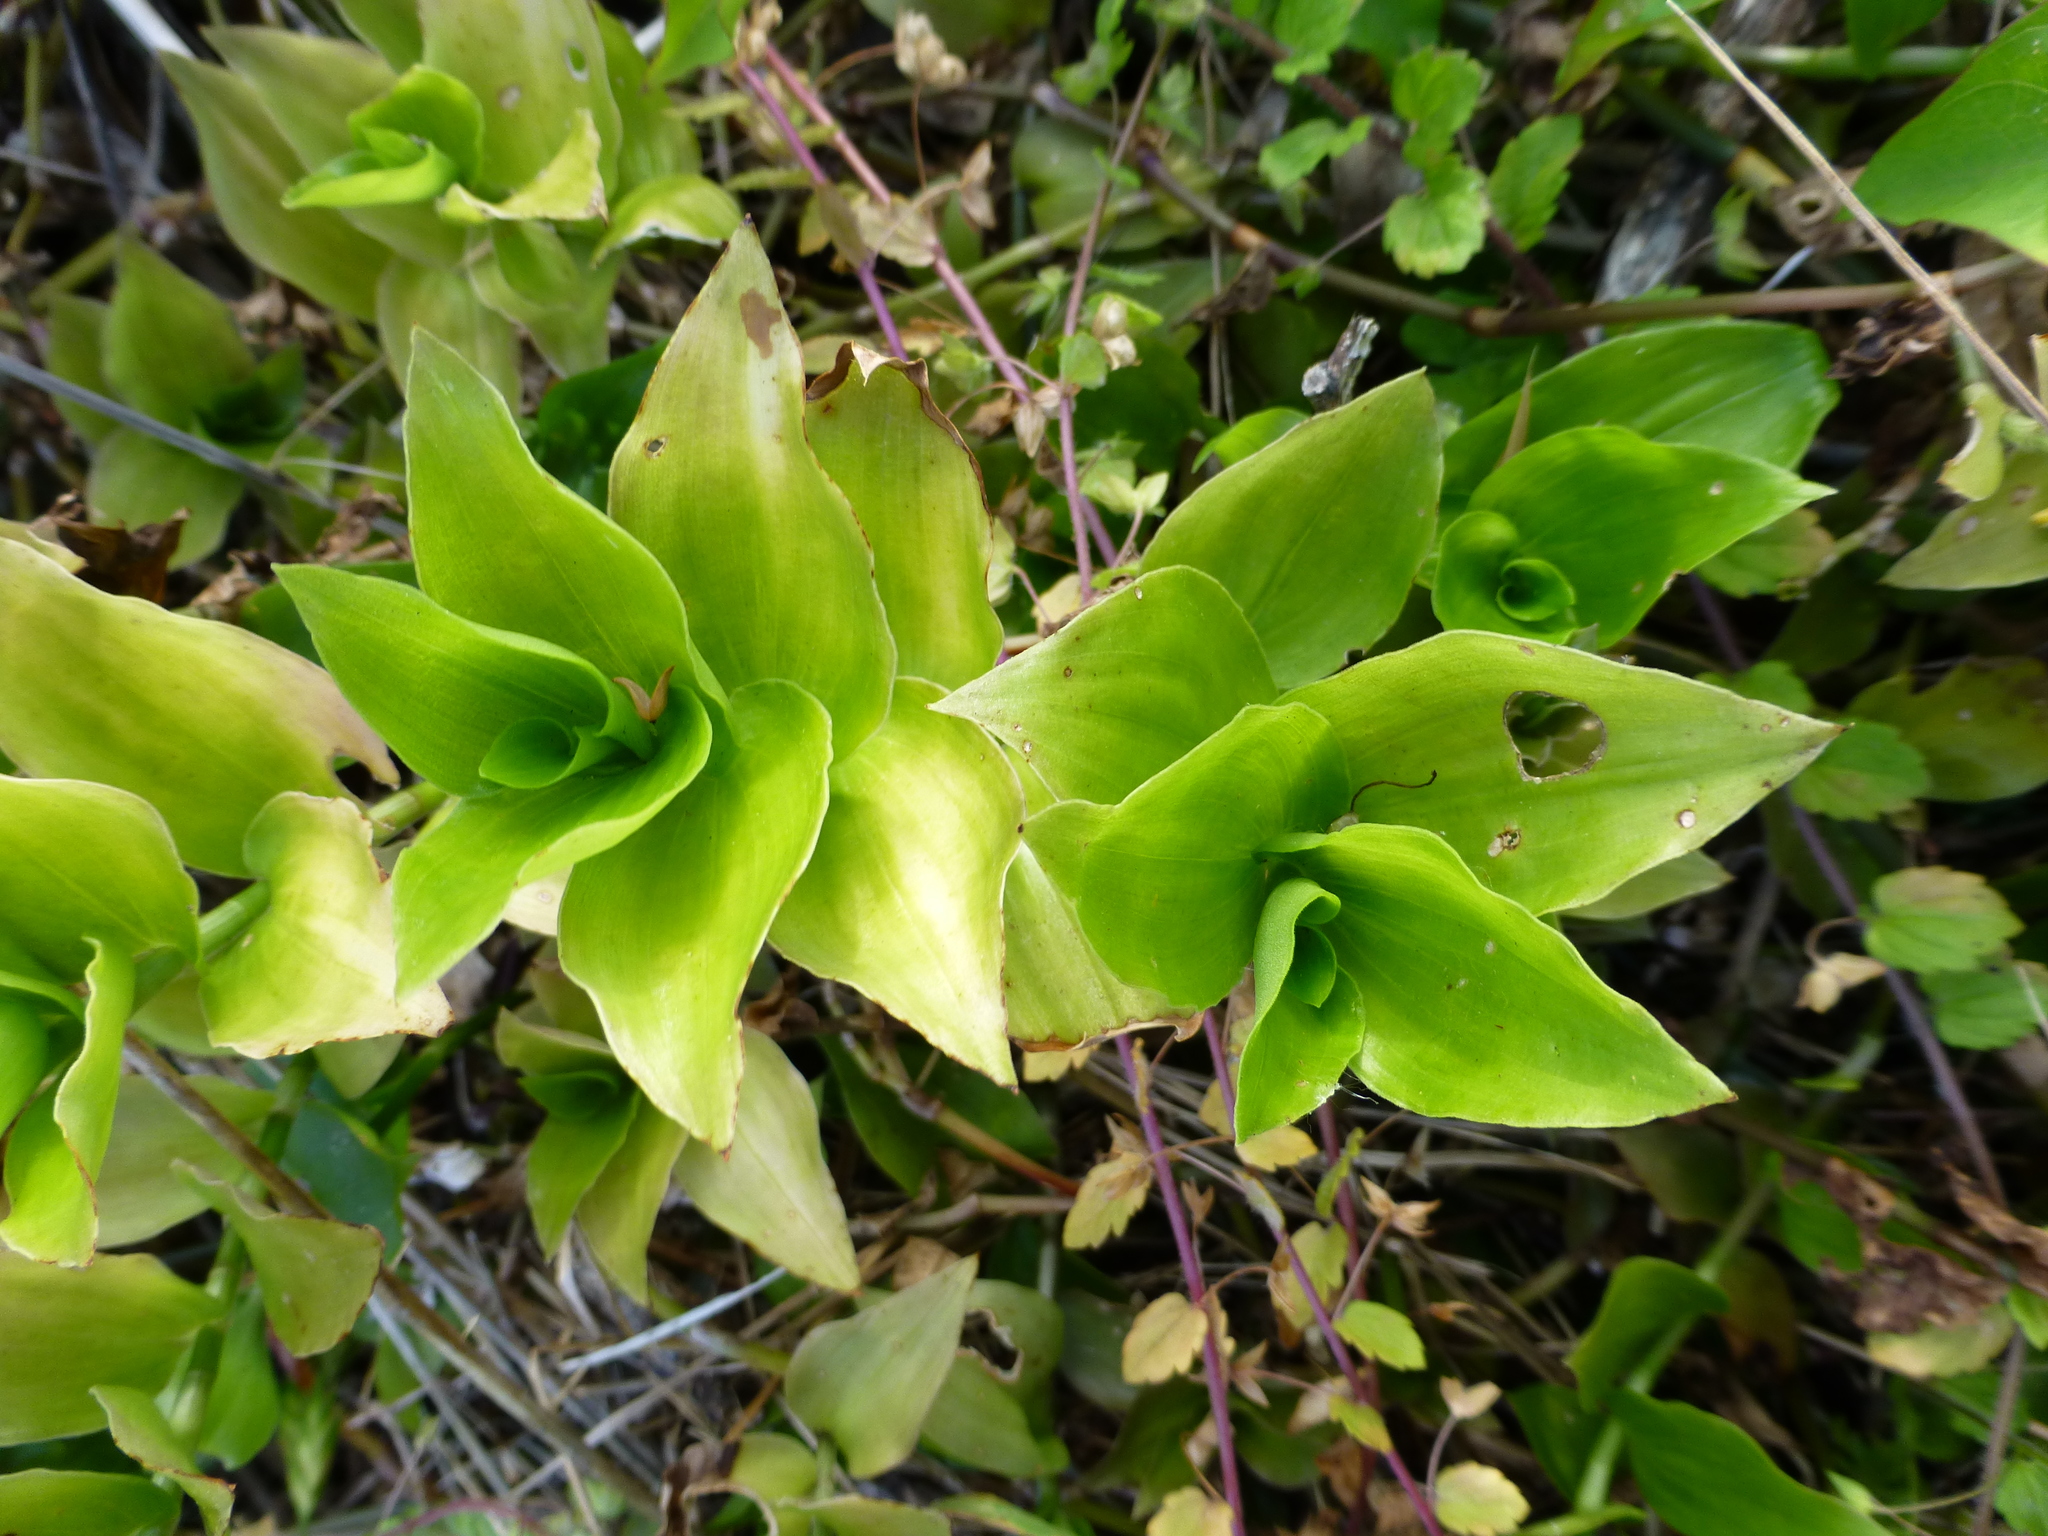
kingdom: Plantae
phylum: Tracheophyta
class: Liliopsida
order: Commelinales
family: Commelinaceae
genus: Tradescantia
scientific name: Tradescantia fluminensis
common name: Wandering-jew
